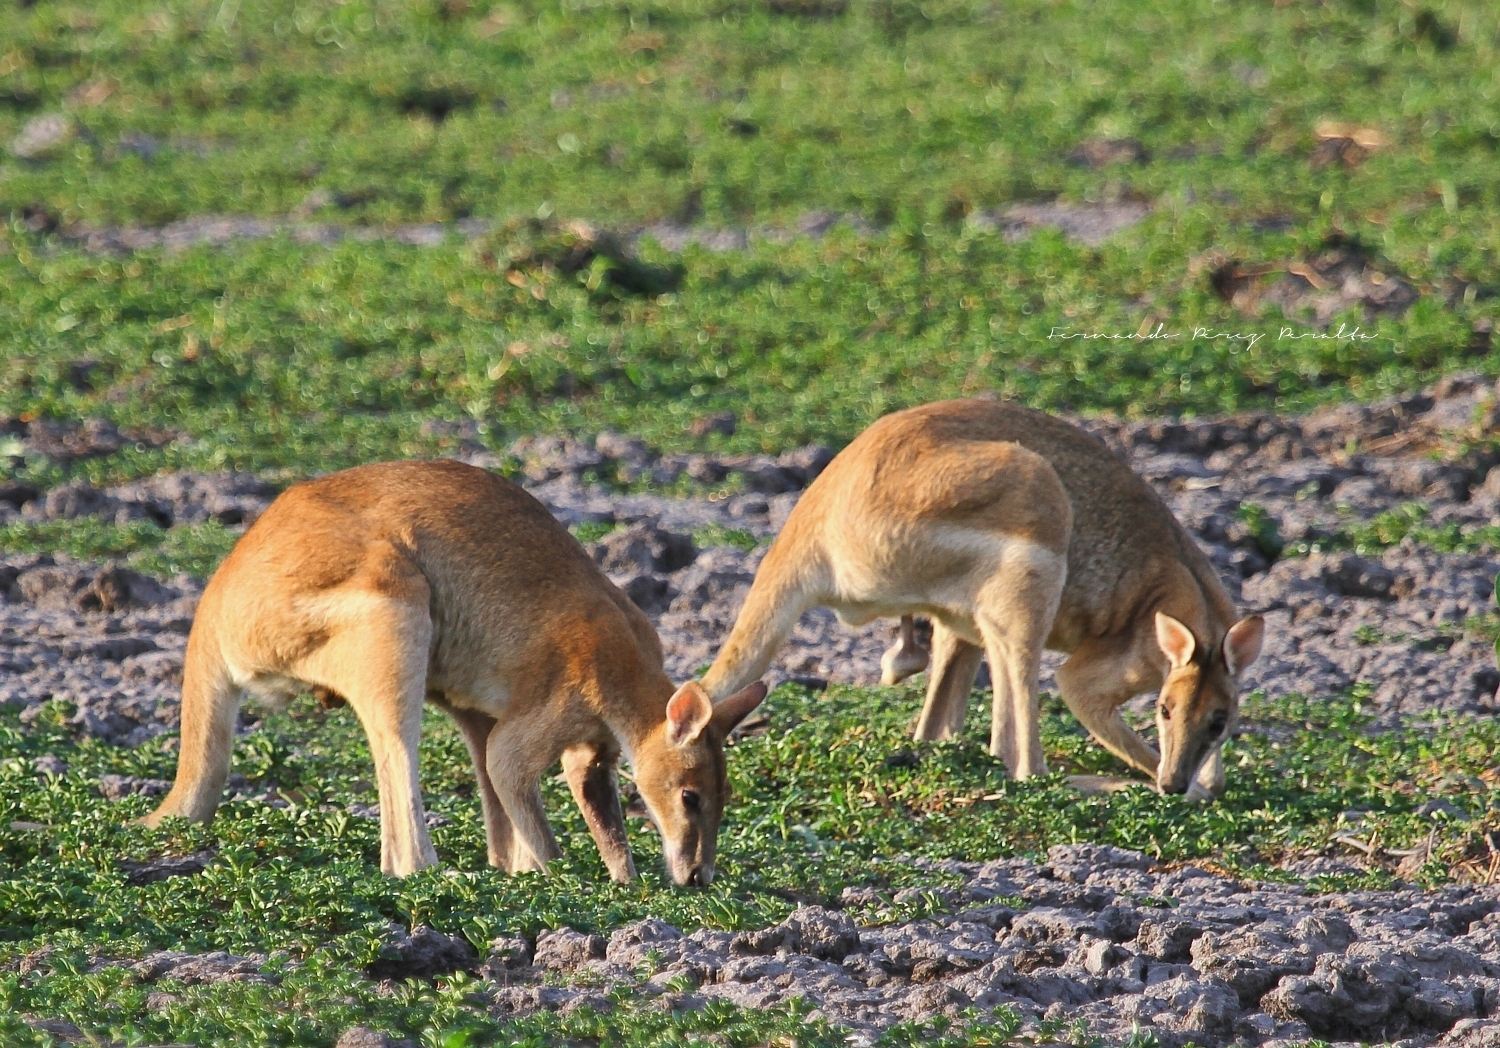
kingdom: Animalia
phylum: Chordata
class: Mammalia
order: Diprotodontia
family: Macropodidae
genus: Macropus
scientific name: Macropus agilis
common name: Agile wallaby
